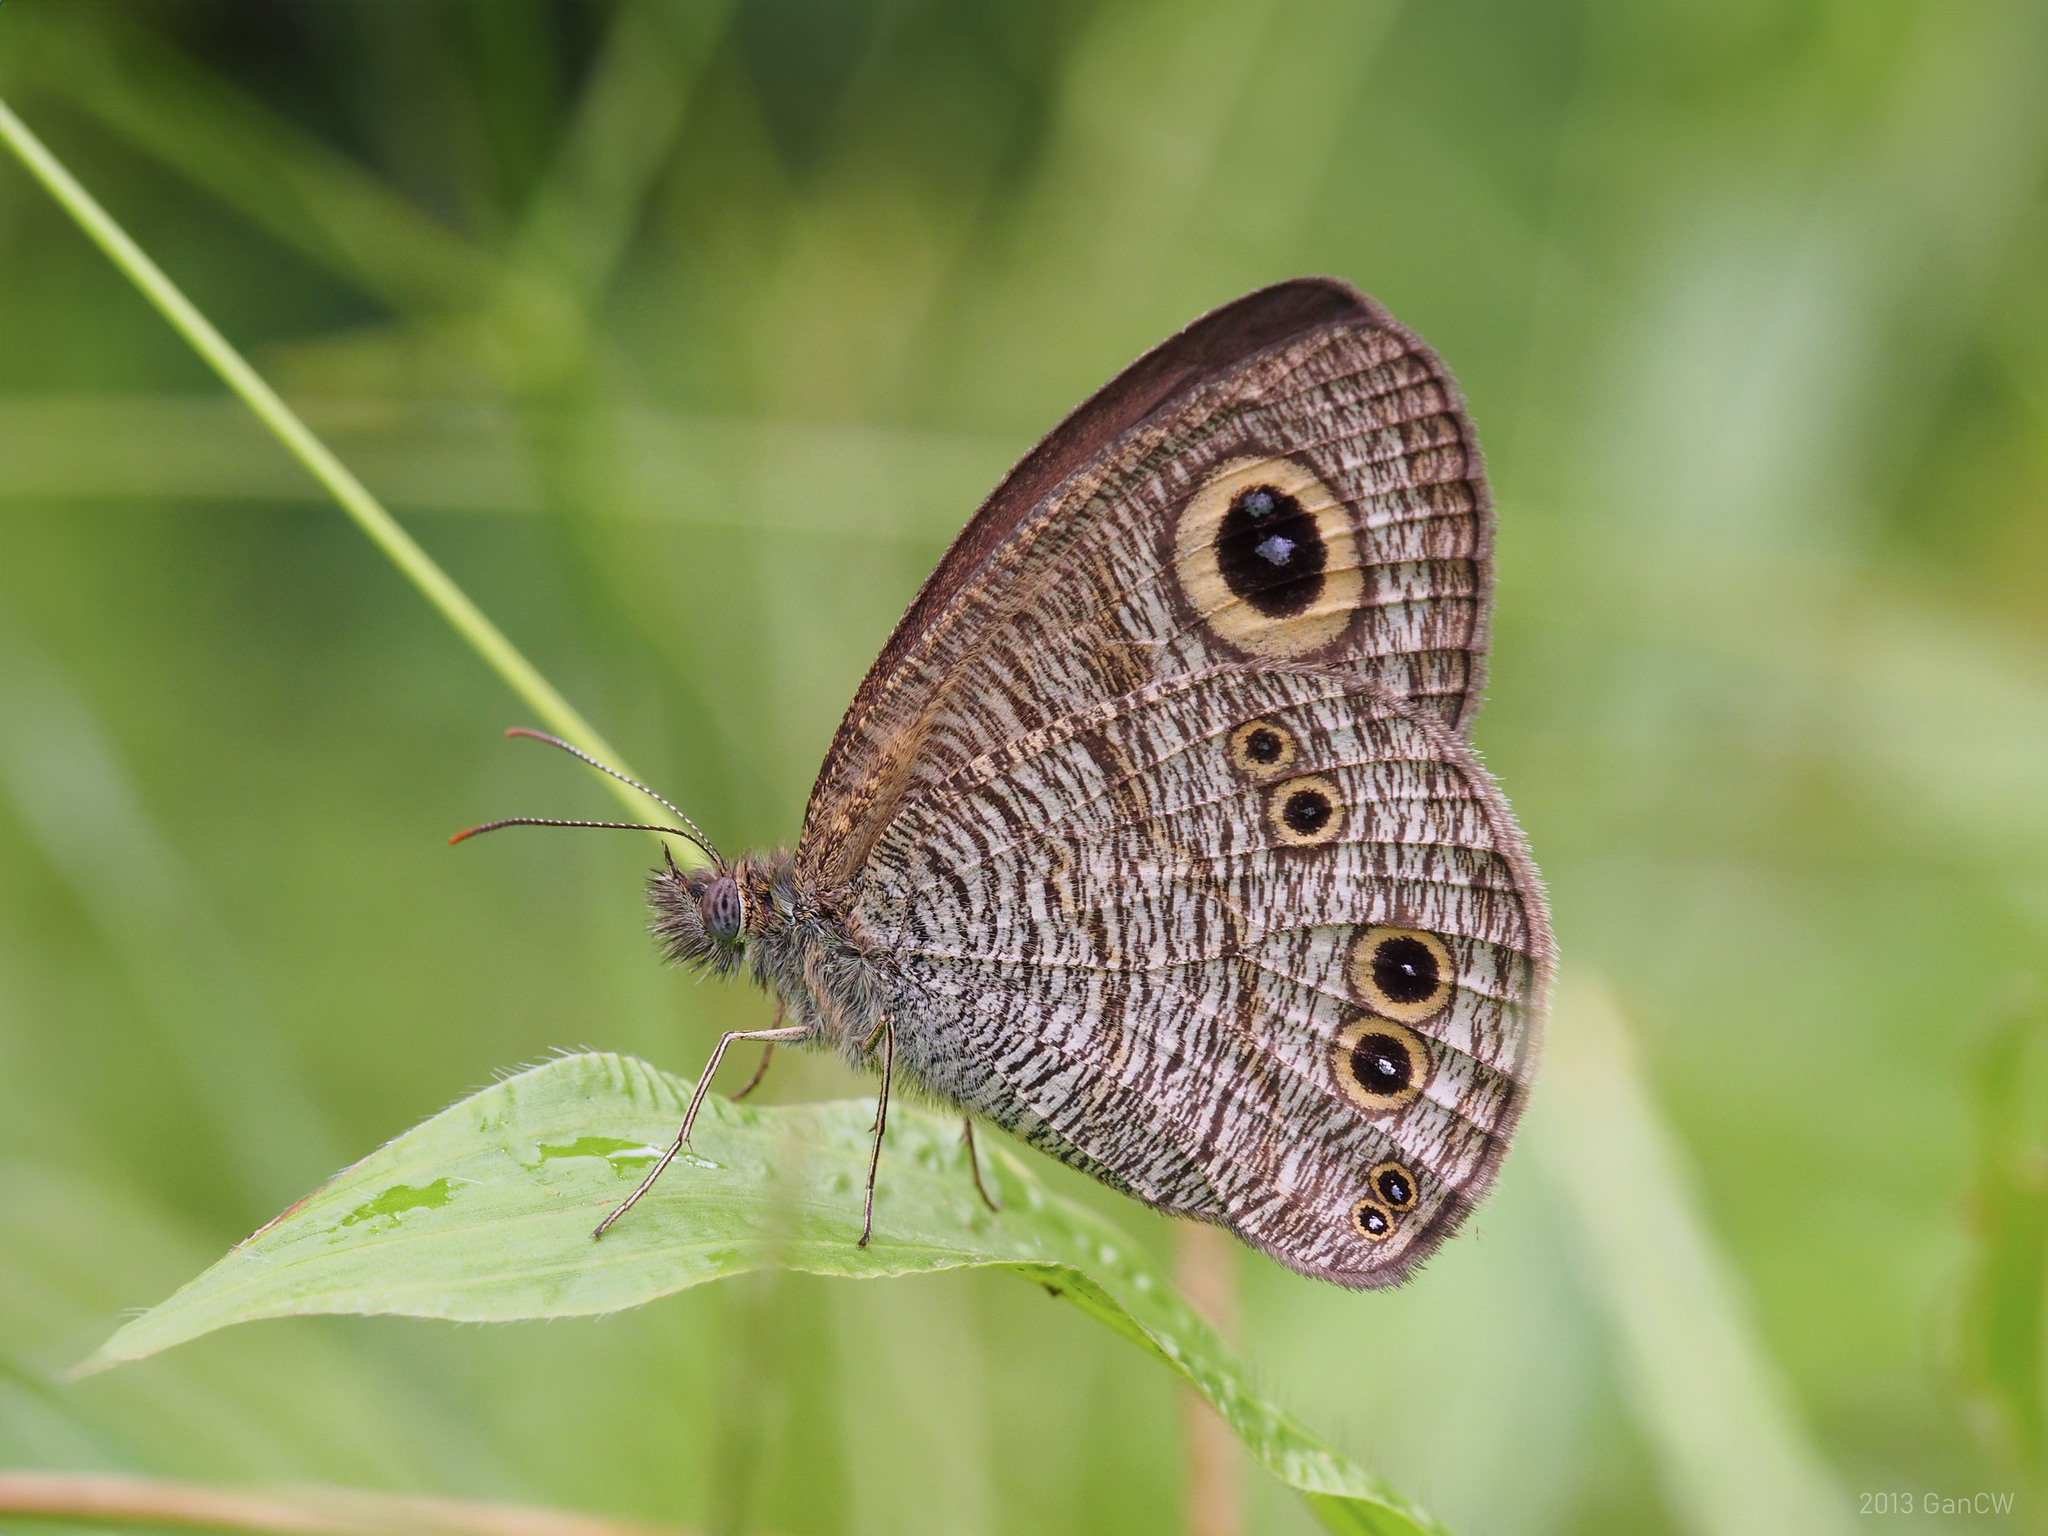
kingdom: Animalia
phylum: Arthropoda
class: Insecta
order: Lepidoptera
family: Nymphalidae
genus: Ypthima
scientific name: Ypthima baldus
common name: Common five-ring
